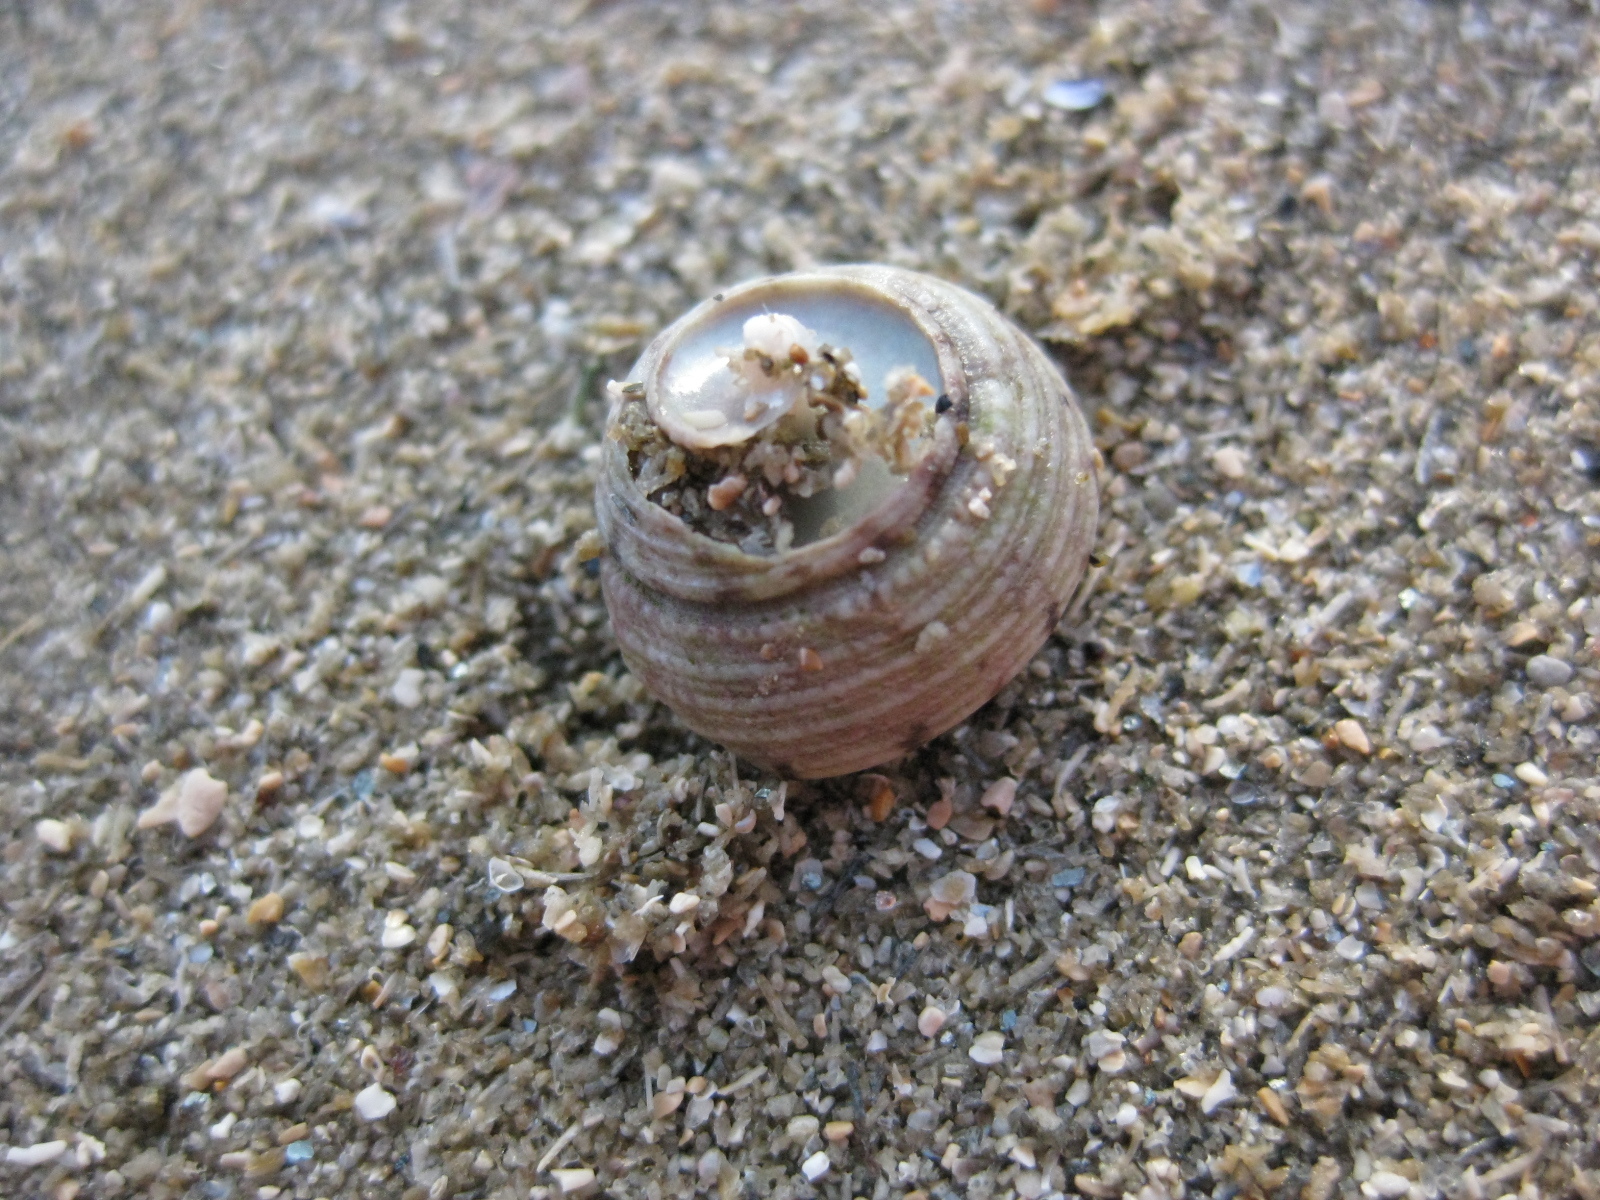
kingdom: Animalia
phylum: Mollusca
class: Gastropoda
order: Trochida
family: Trochidae
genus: Coelotrochus
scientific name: Coelotrochus tiaratus
